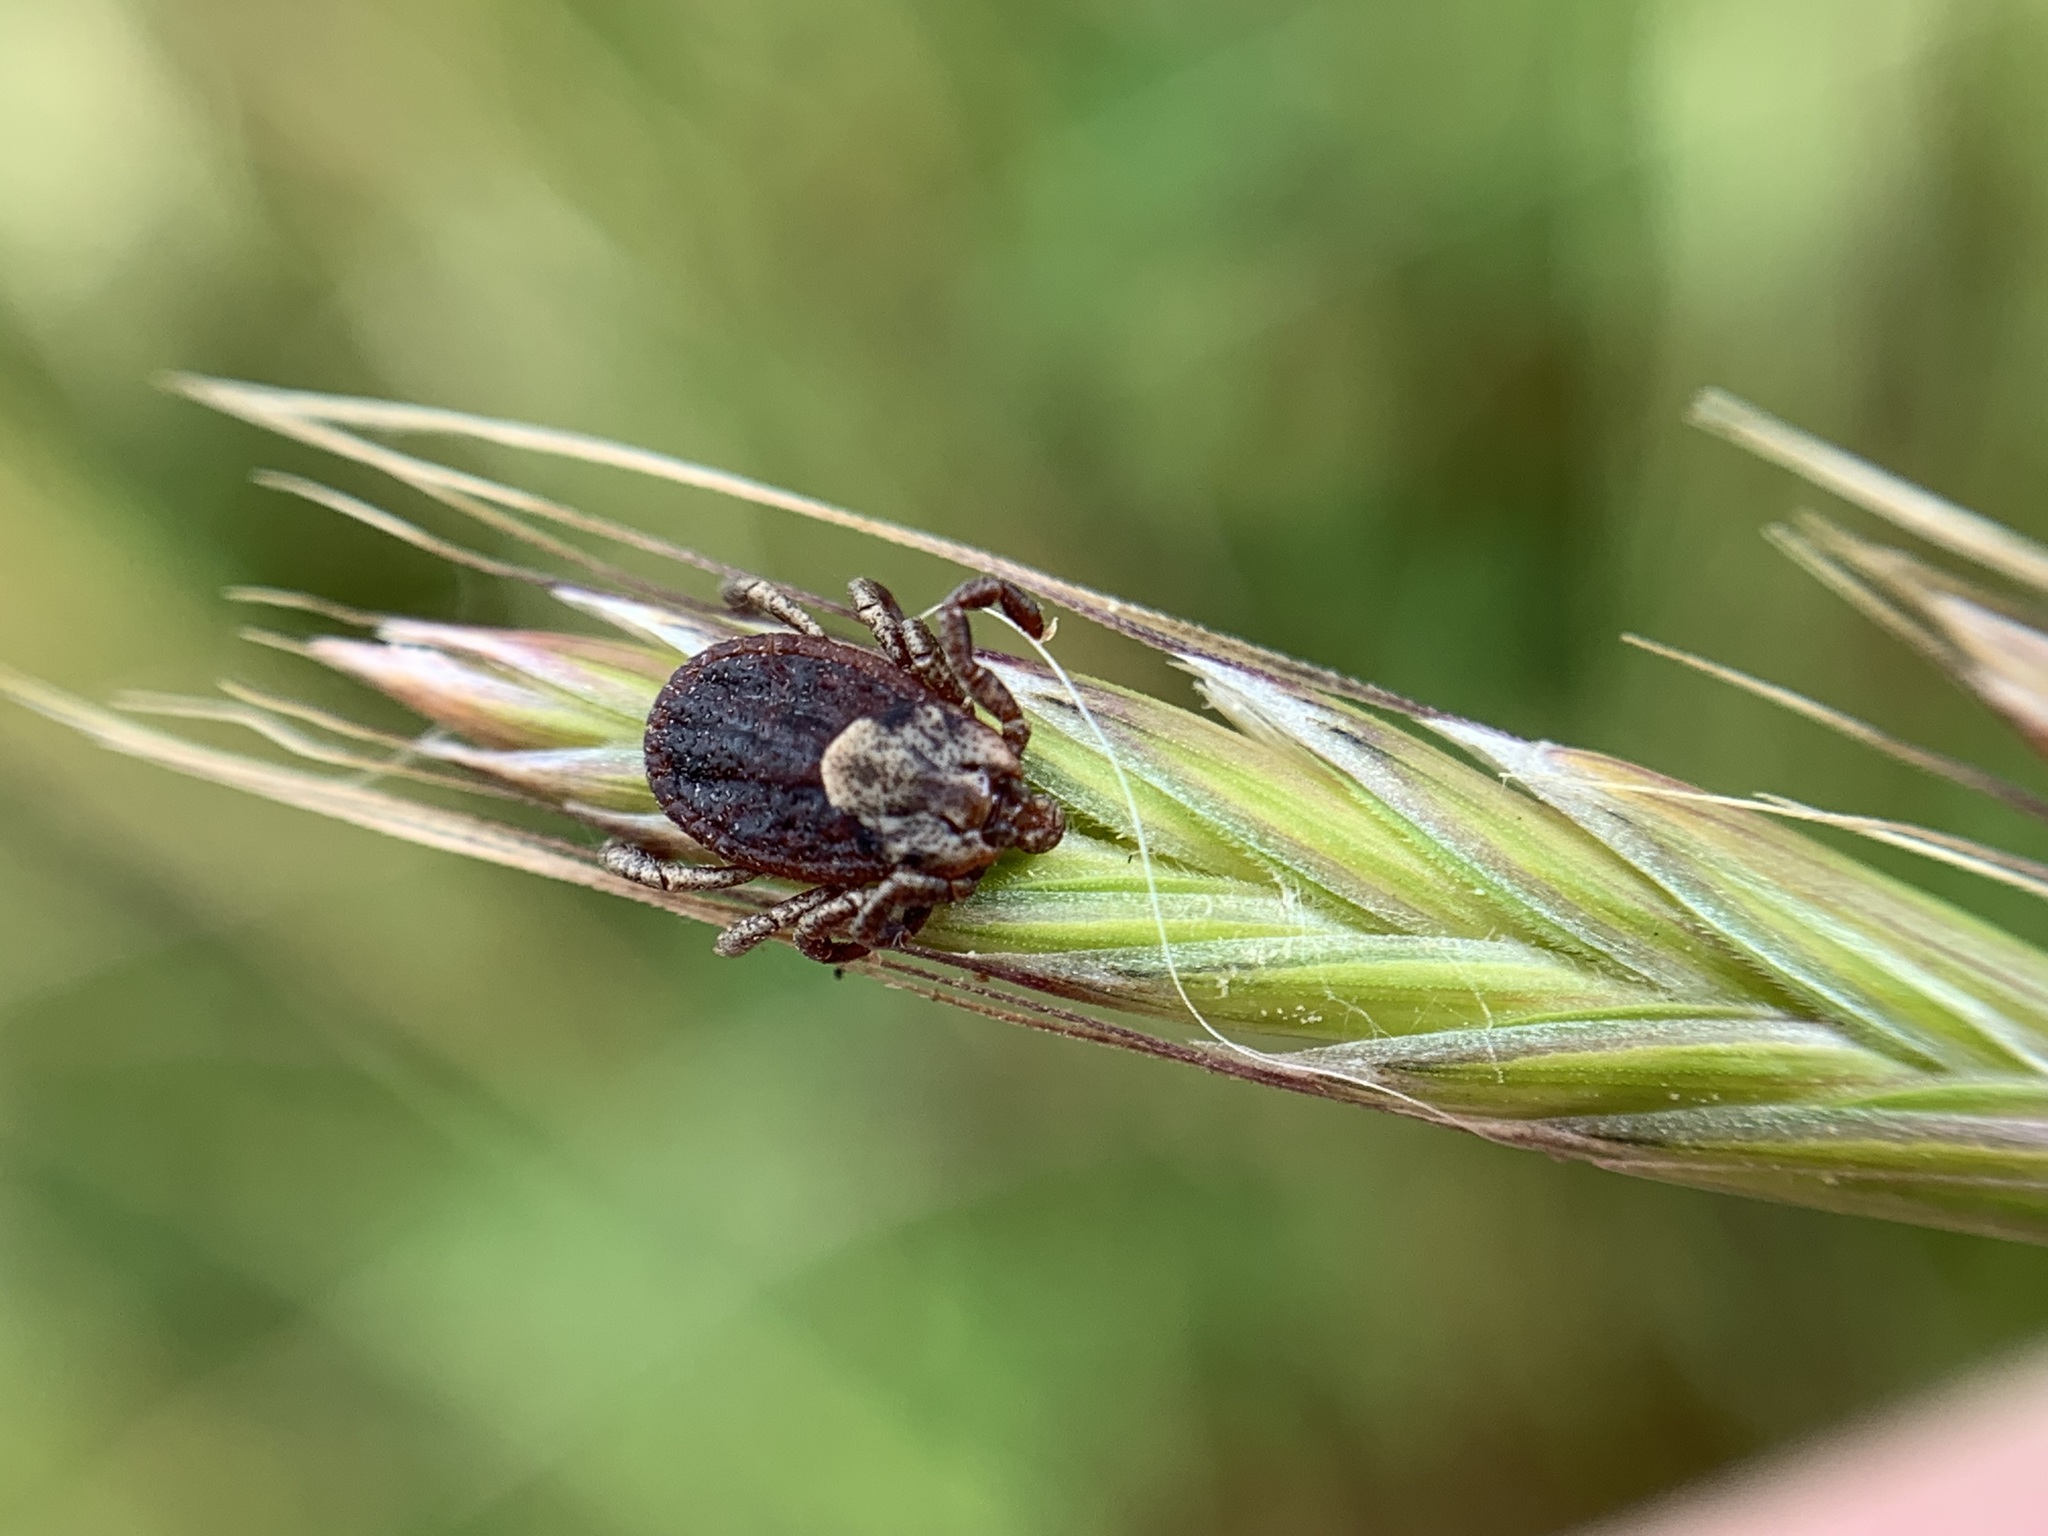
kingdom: Animalia
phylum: Arthropoda
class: Arachnida
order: Ixodida
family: Ixodidae
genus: Dermacentor
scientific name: Dermacentor occidentalis
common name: Net tick
